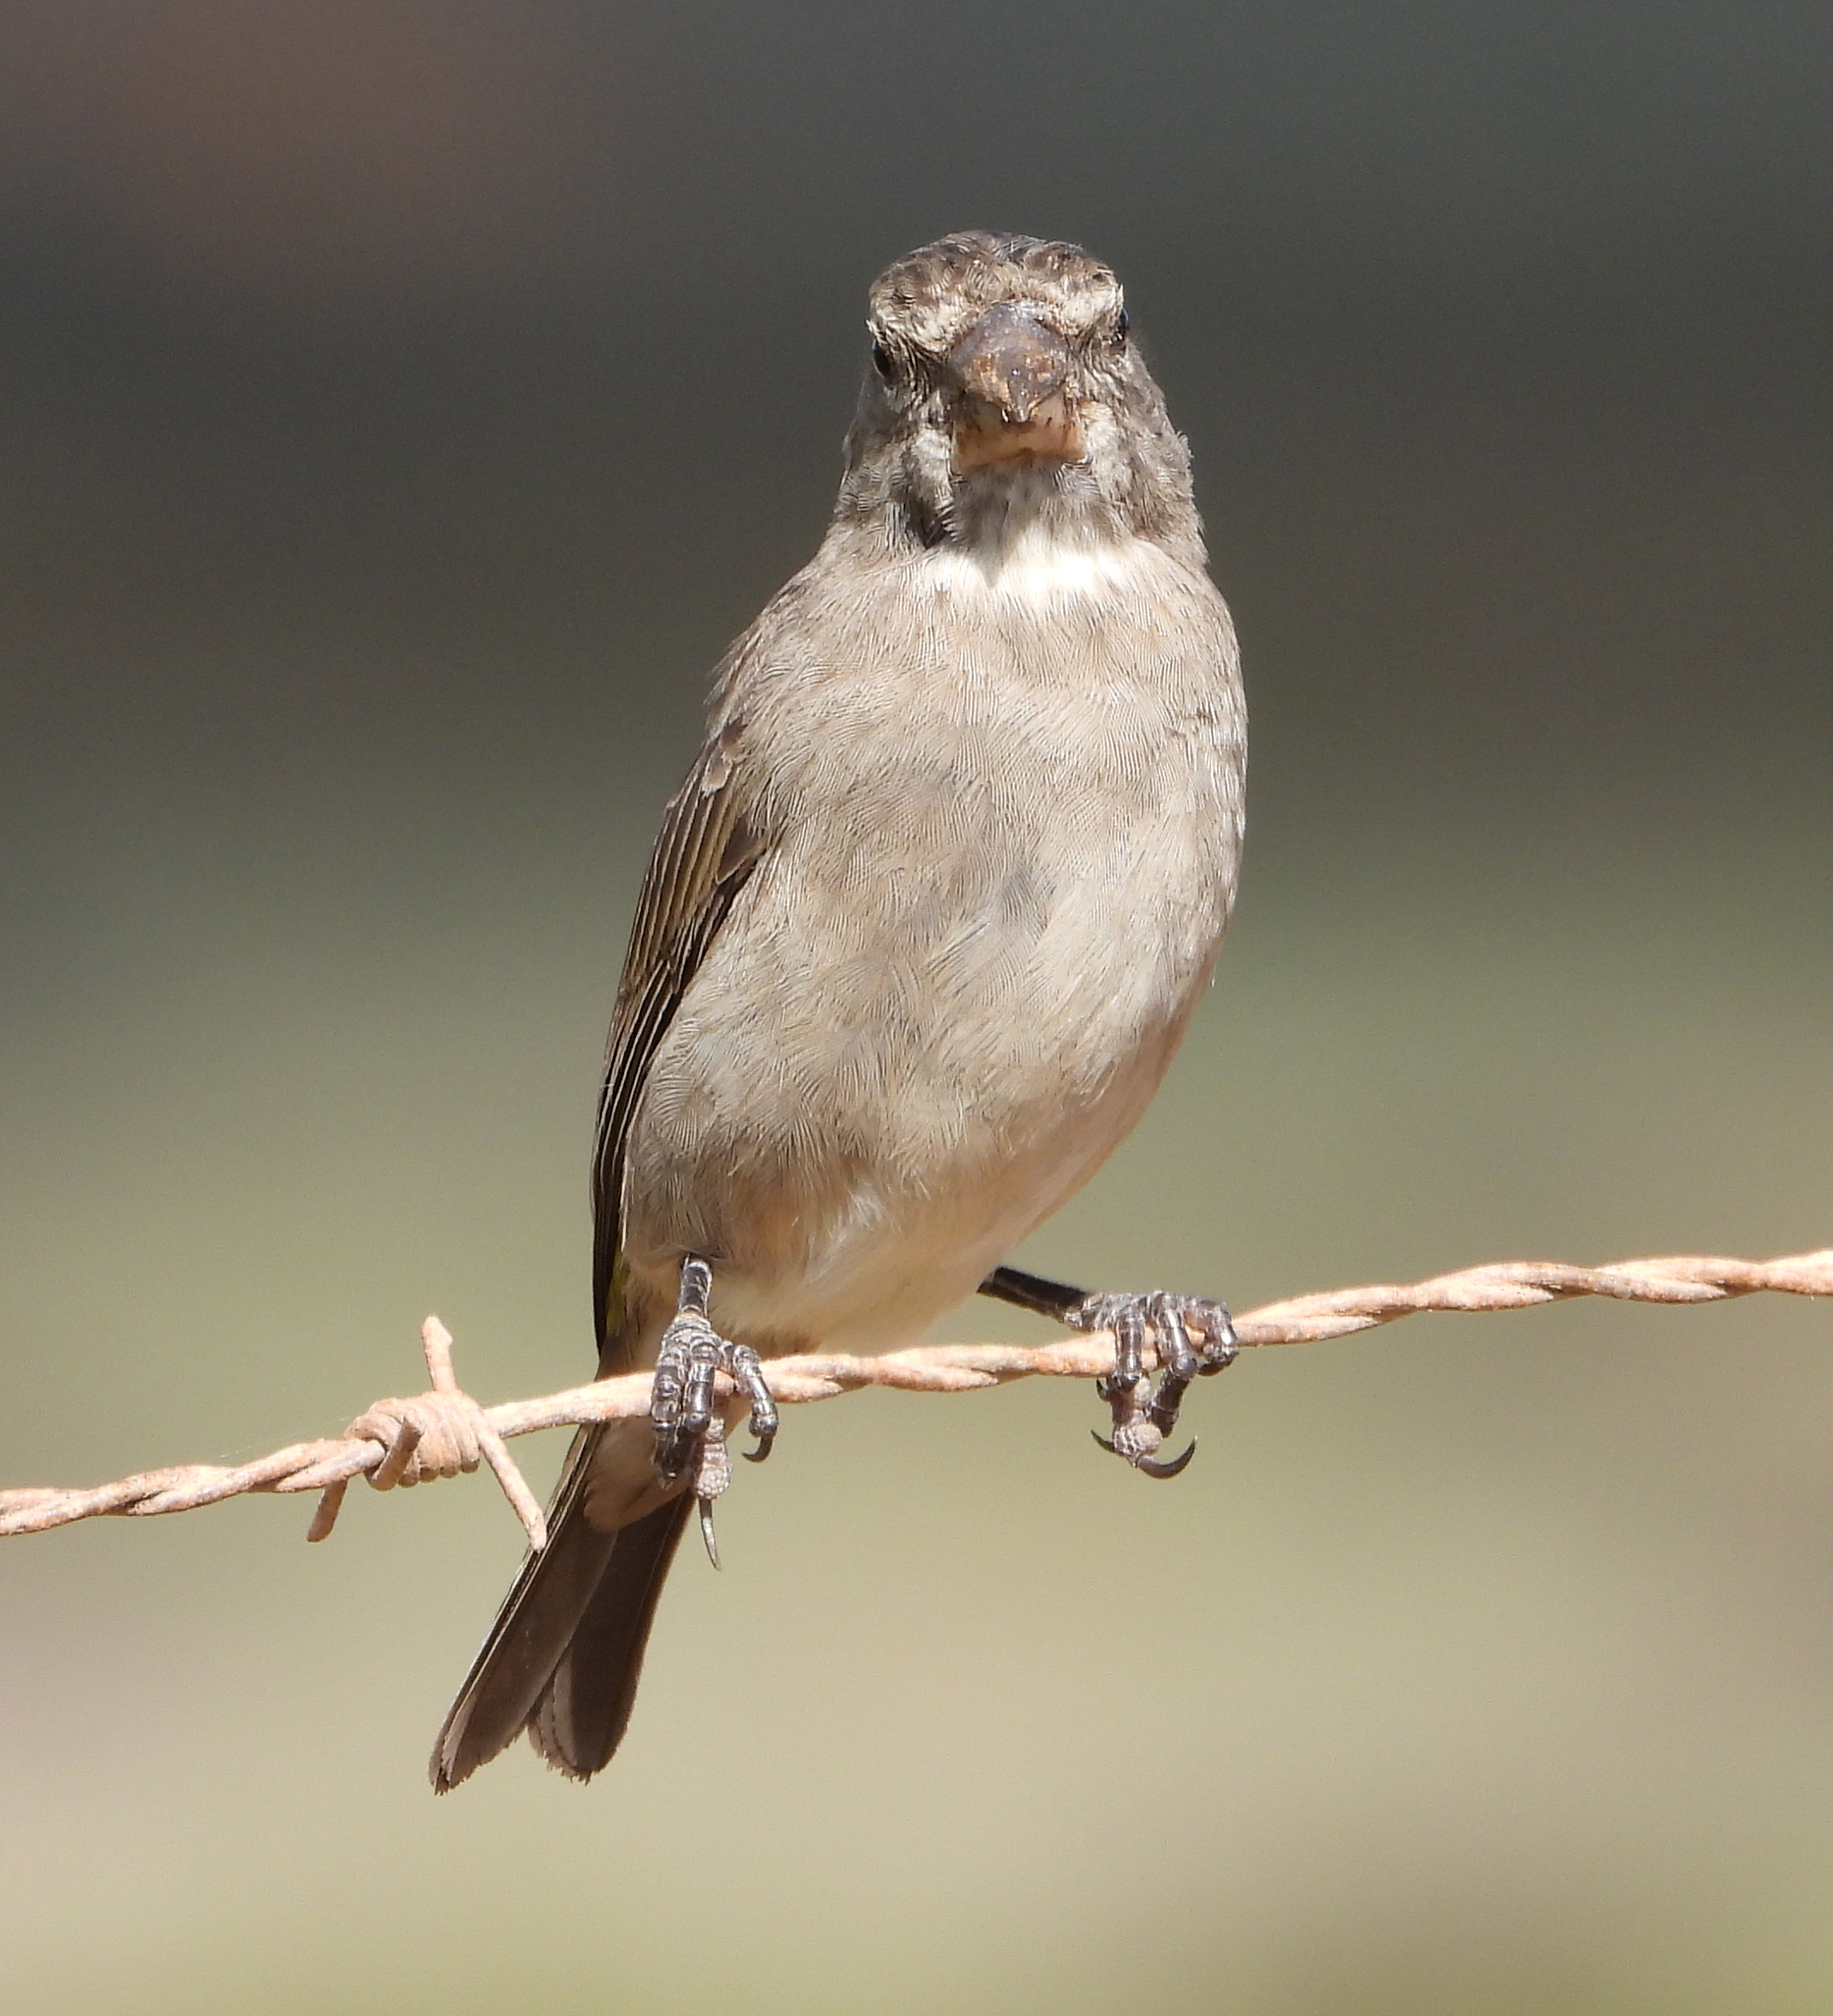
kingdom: Animalia
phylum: Chordata
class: Aves
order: Passeriformes
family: Fringillidae
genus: Crithagra
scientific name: Crithagra albogularis
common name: White-throated canary
